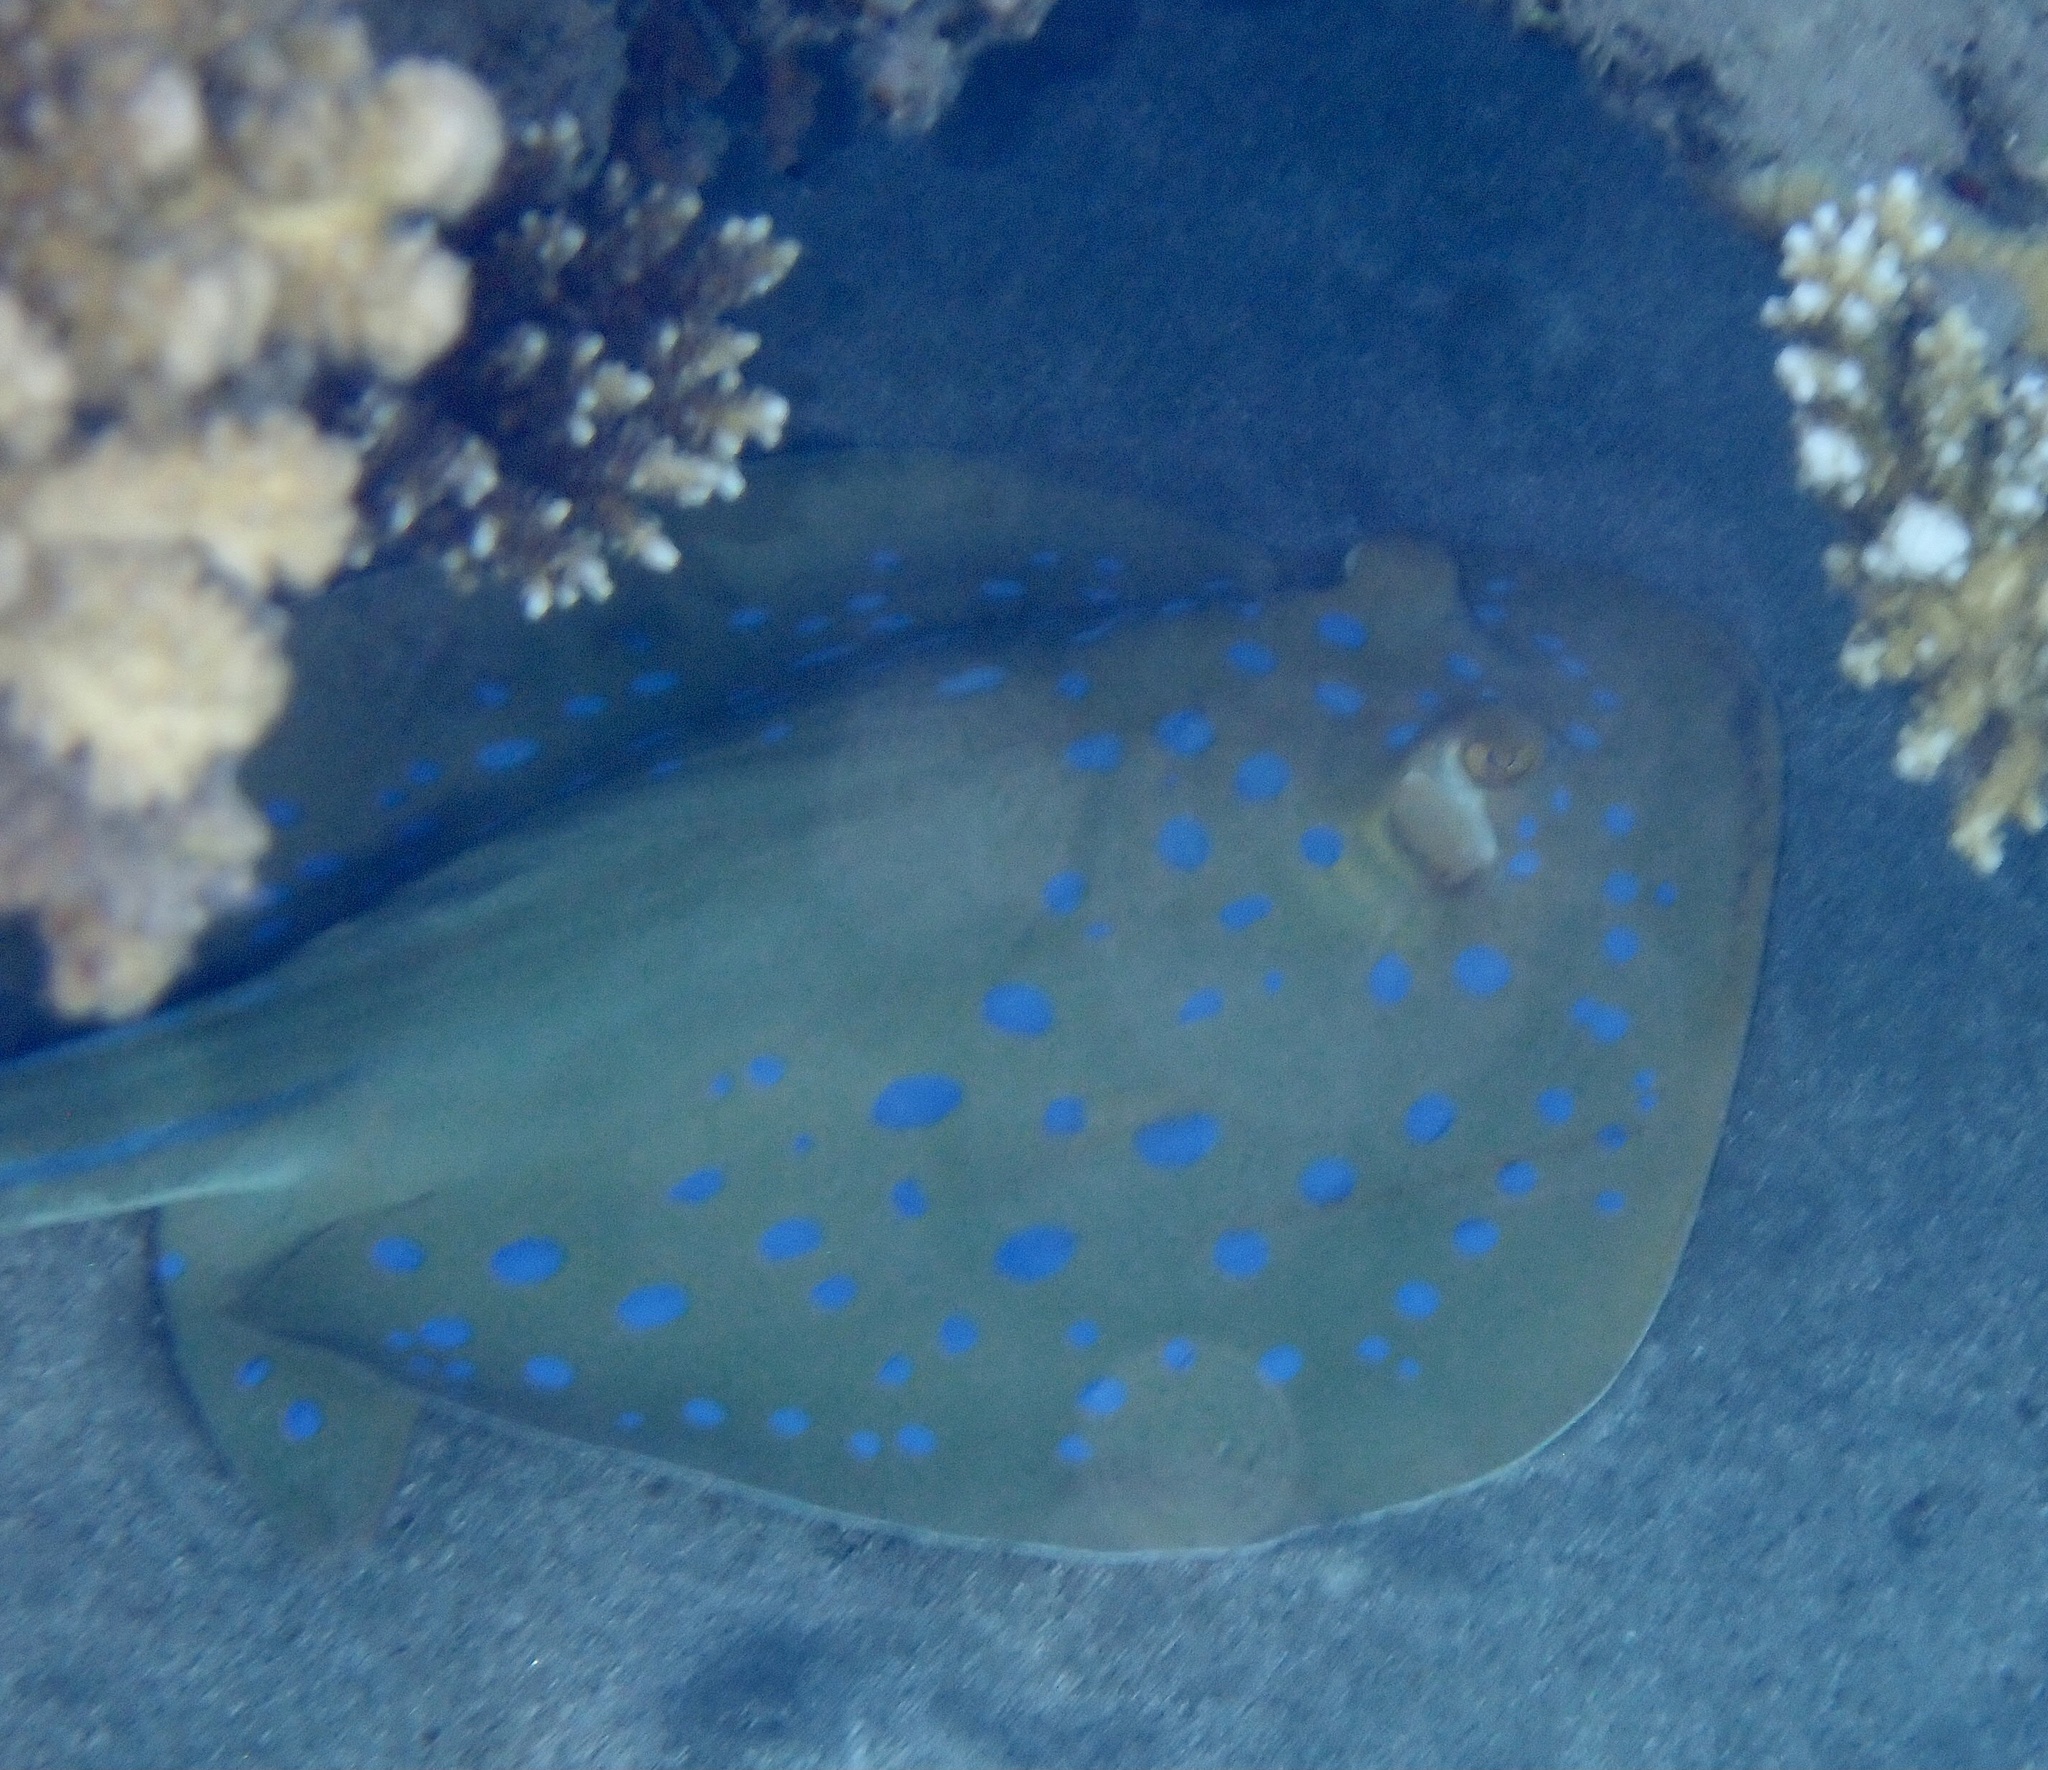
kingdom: Animalia
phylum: Chordata
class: Elasmobranchii
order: Myliobatiformes
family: Dasyatidae
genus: Taeniura
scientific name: Taeniura lymma
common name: Bluespotted ribbontail ray
